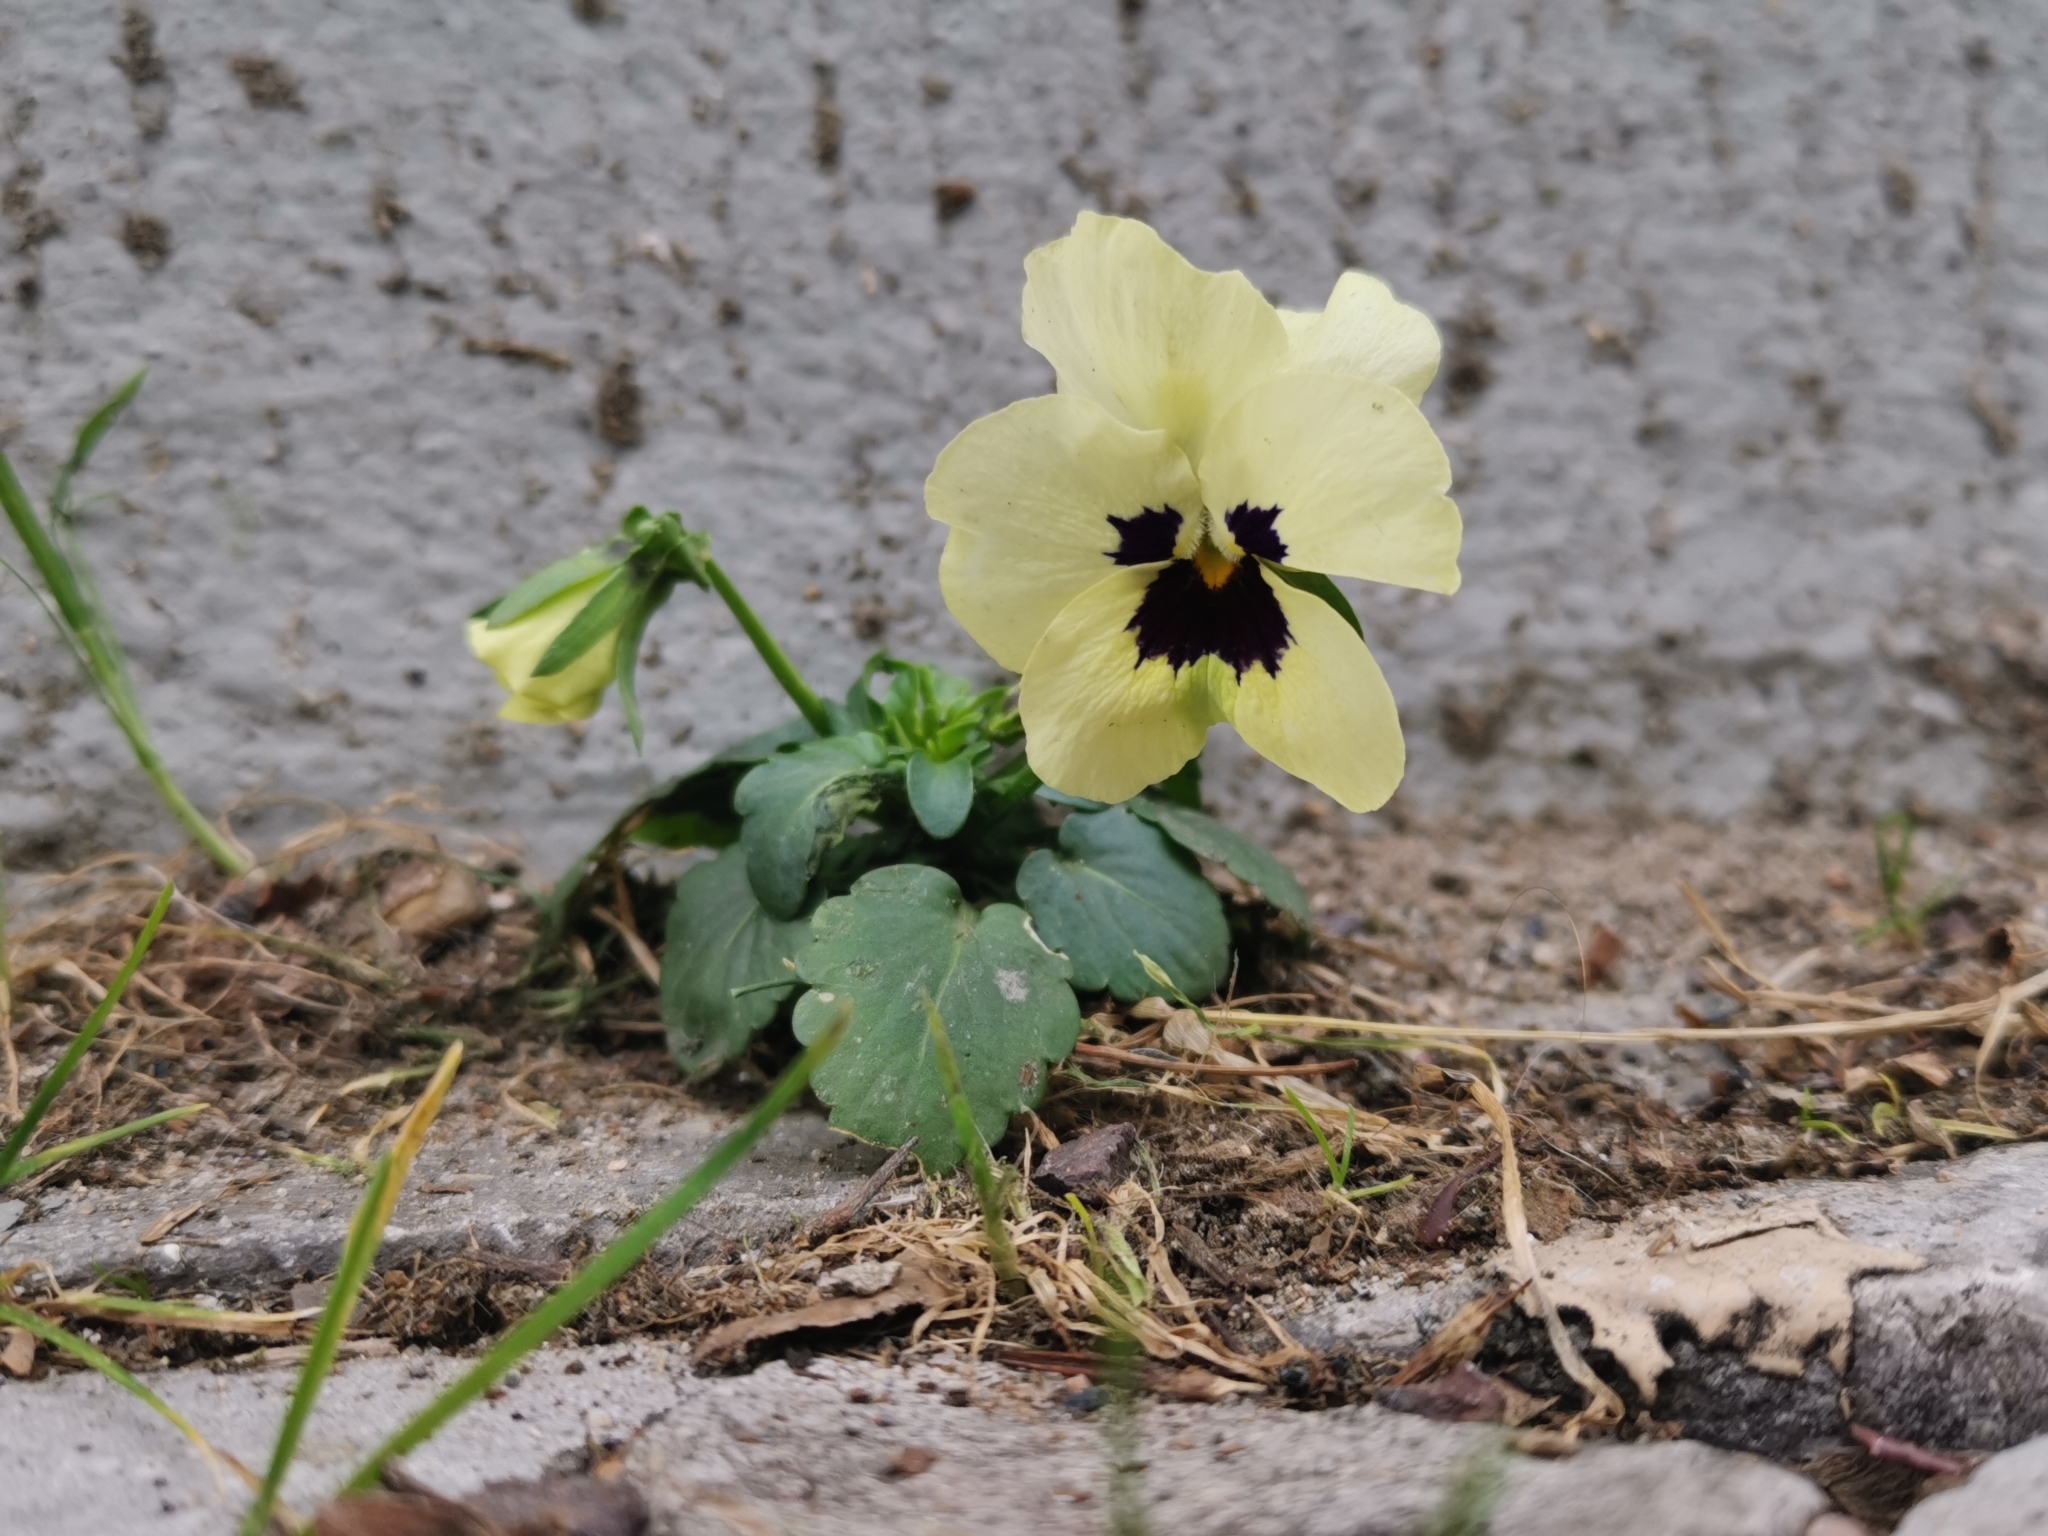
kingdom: Plantae
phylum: Tracheophyta
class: Magnoliopsida
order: Malpighiales
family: Violaceae
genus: Viola
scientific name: Viola wittrockiana
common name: Garden pansy
